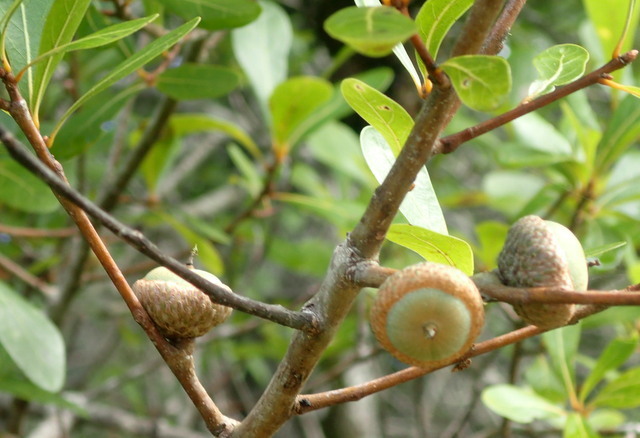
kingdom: Plantae
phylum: Tracheophyta
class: Magnoliopsida
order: Fagales
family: Fagaceae
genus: Quercus
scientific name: Quercus laurifolia
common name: Swamp laurel oak
